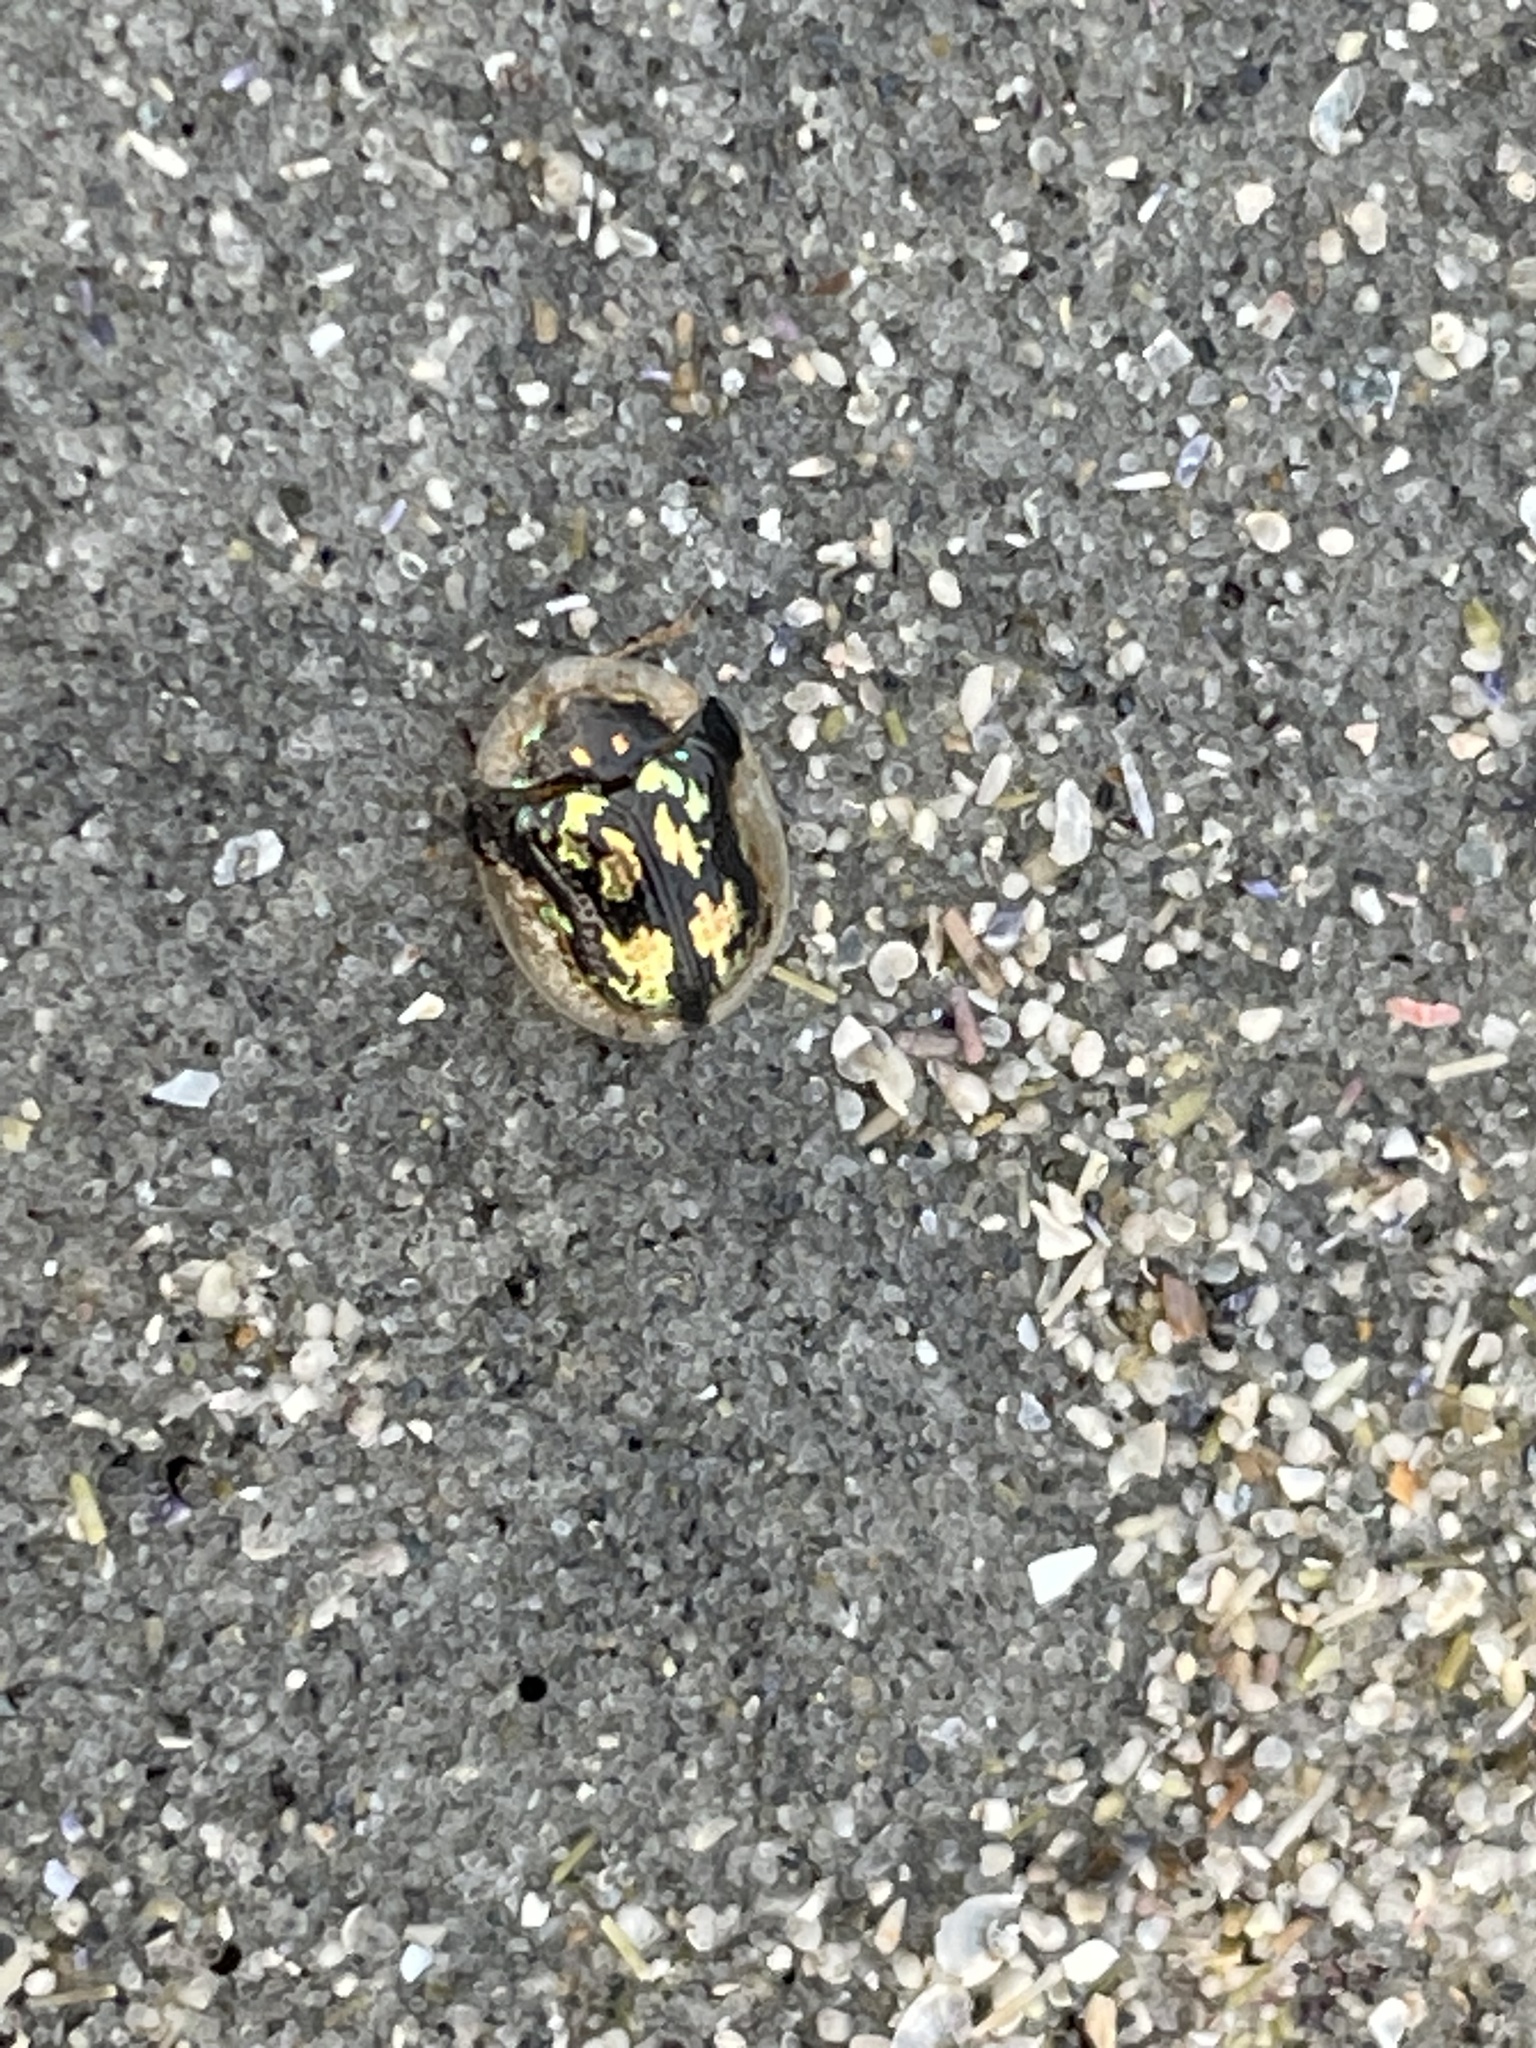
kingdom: Animalia
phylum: Arthropoda
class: Insecta
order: Coleoptera
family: Chrysomelidae
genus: Deloyala
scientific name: Deloyala guttata
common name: Mottled tortoise beetle
